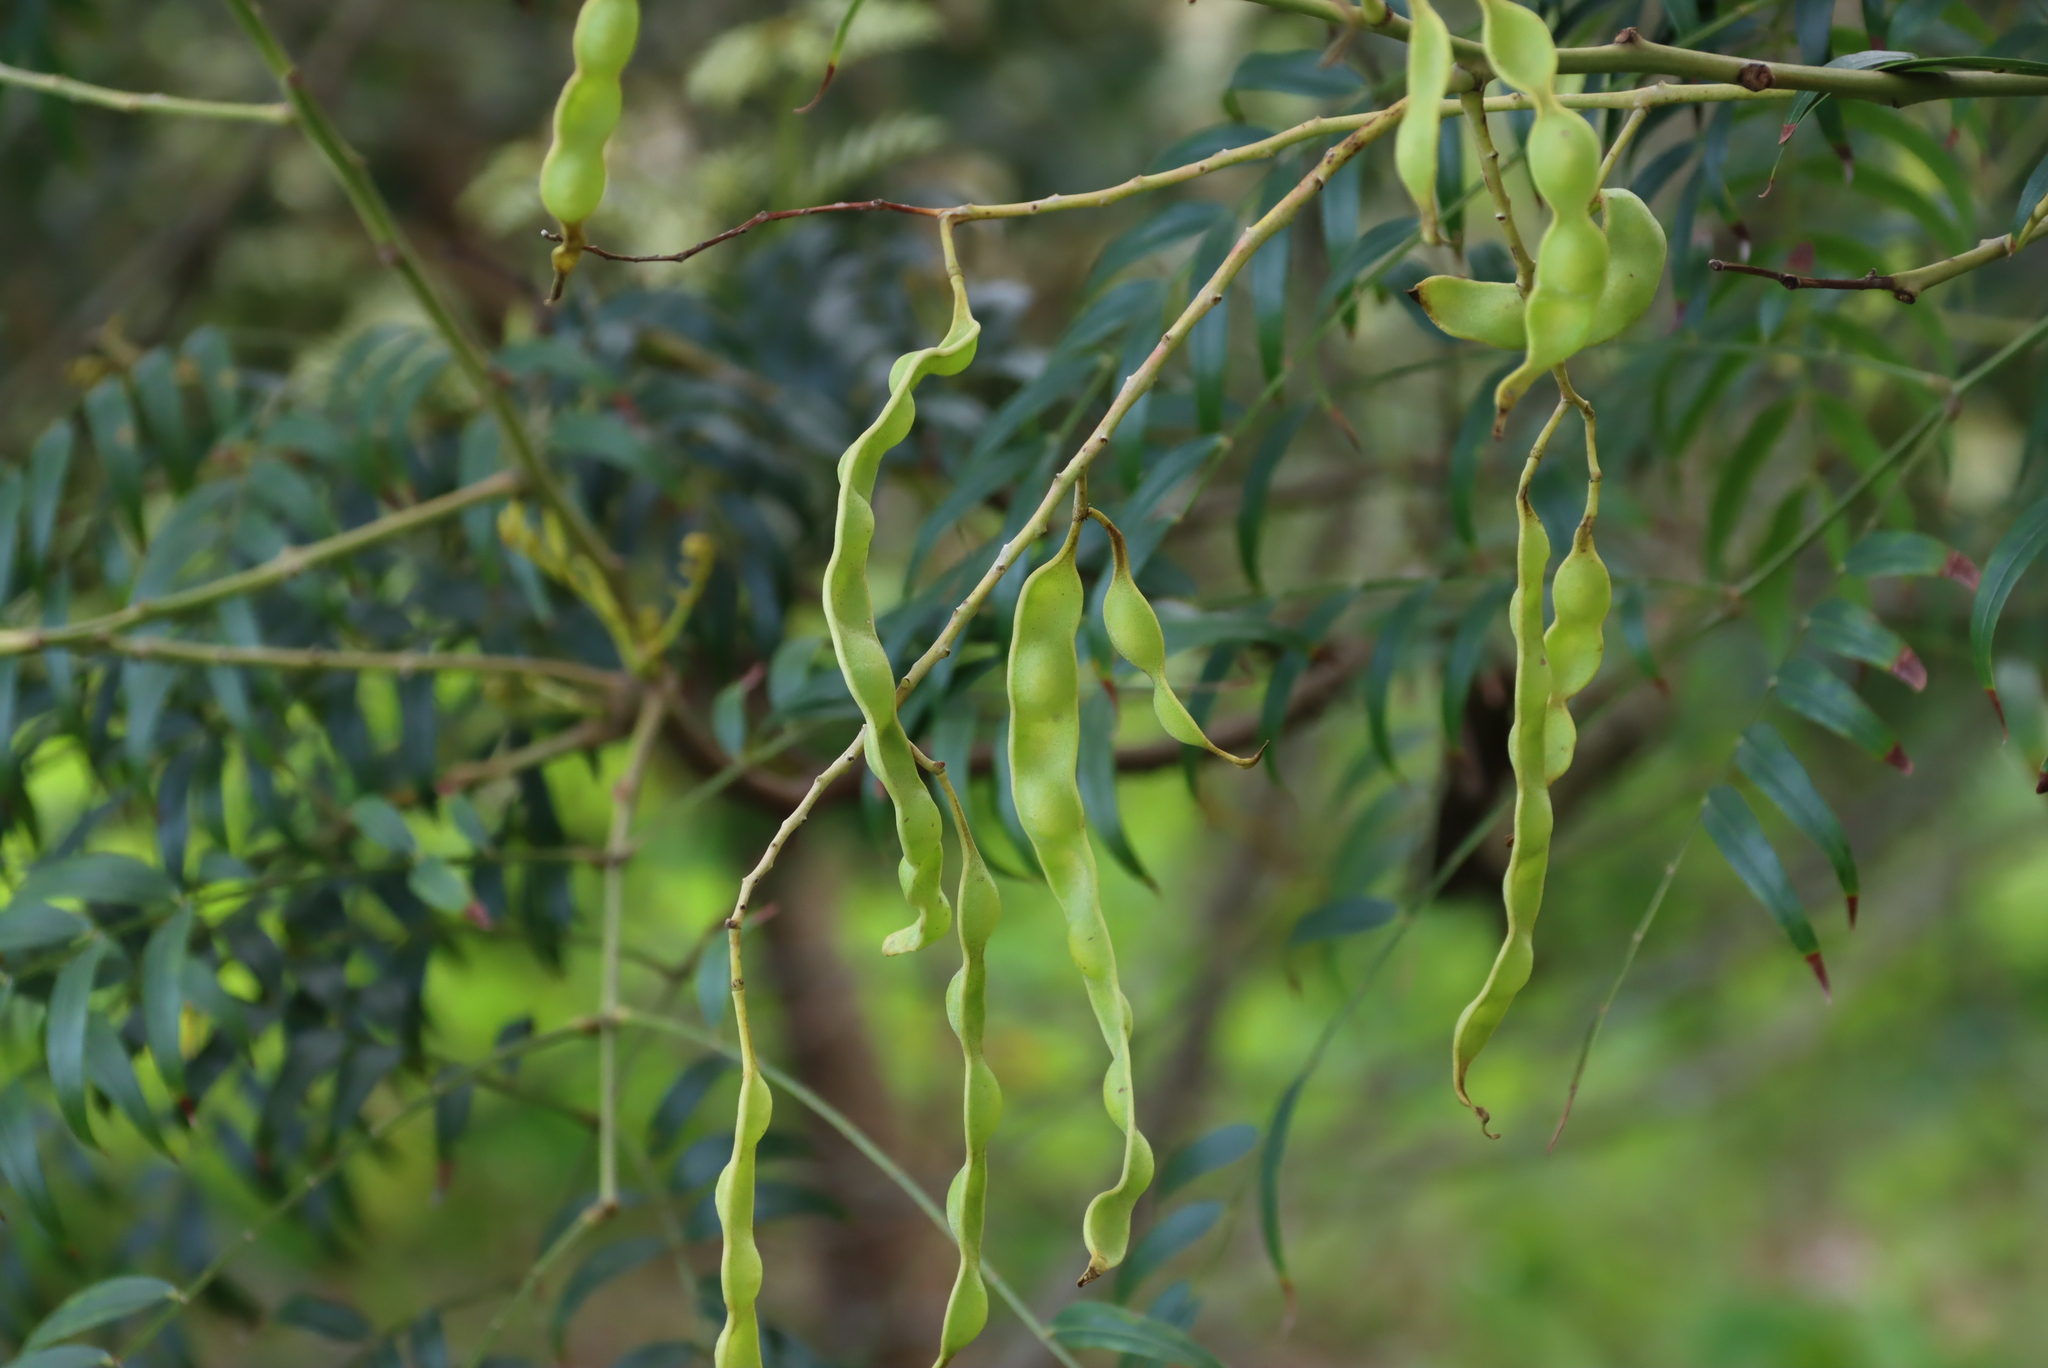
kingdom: Plantae
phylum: Tracheophyta
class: Magnoliopsida
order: Fabales
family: Fabaceae
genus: Acacia
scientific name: Acacia elata
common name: Cedar wattle
